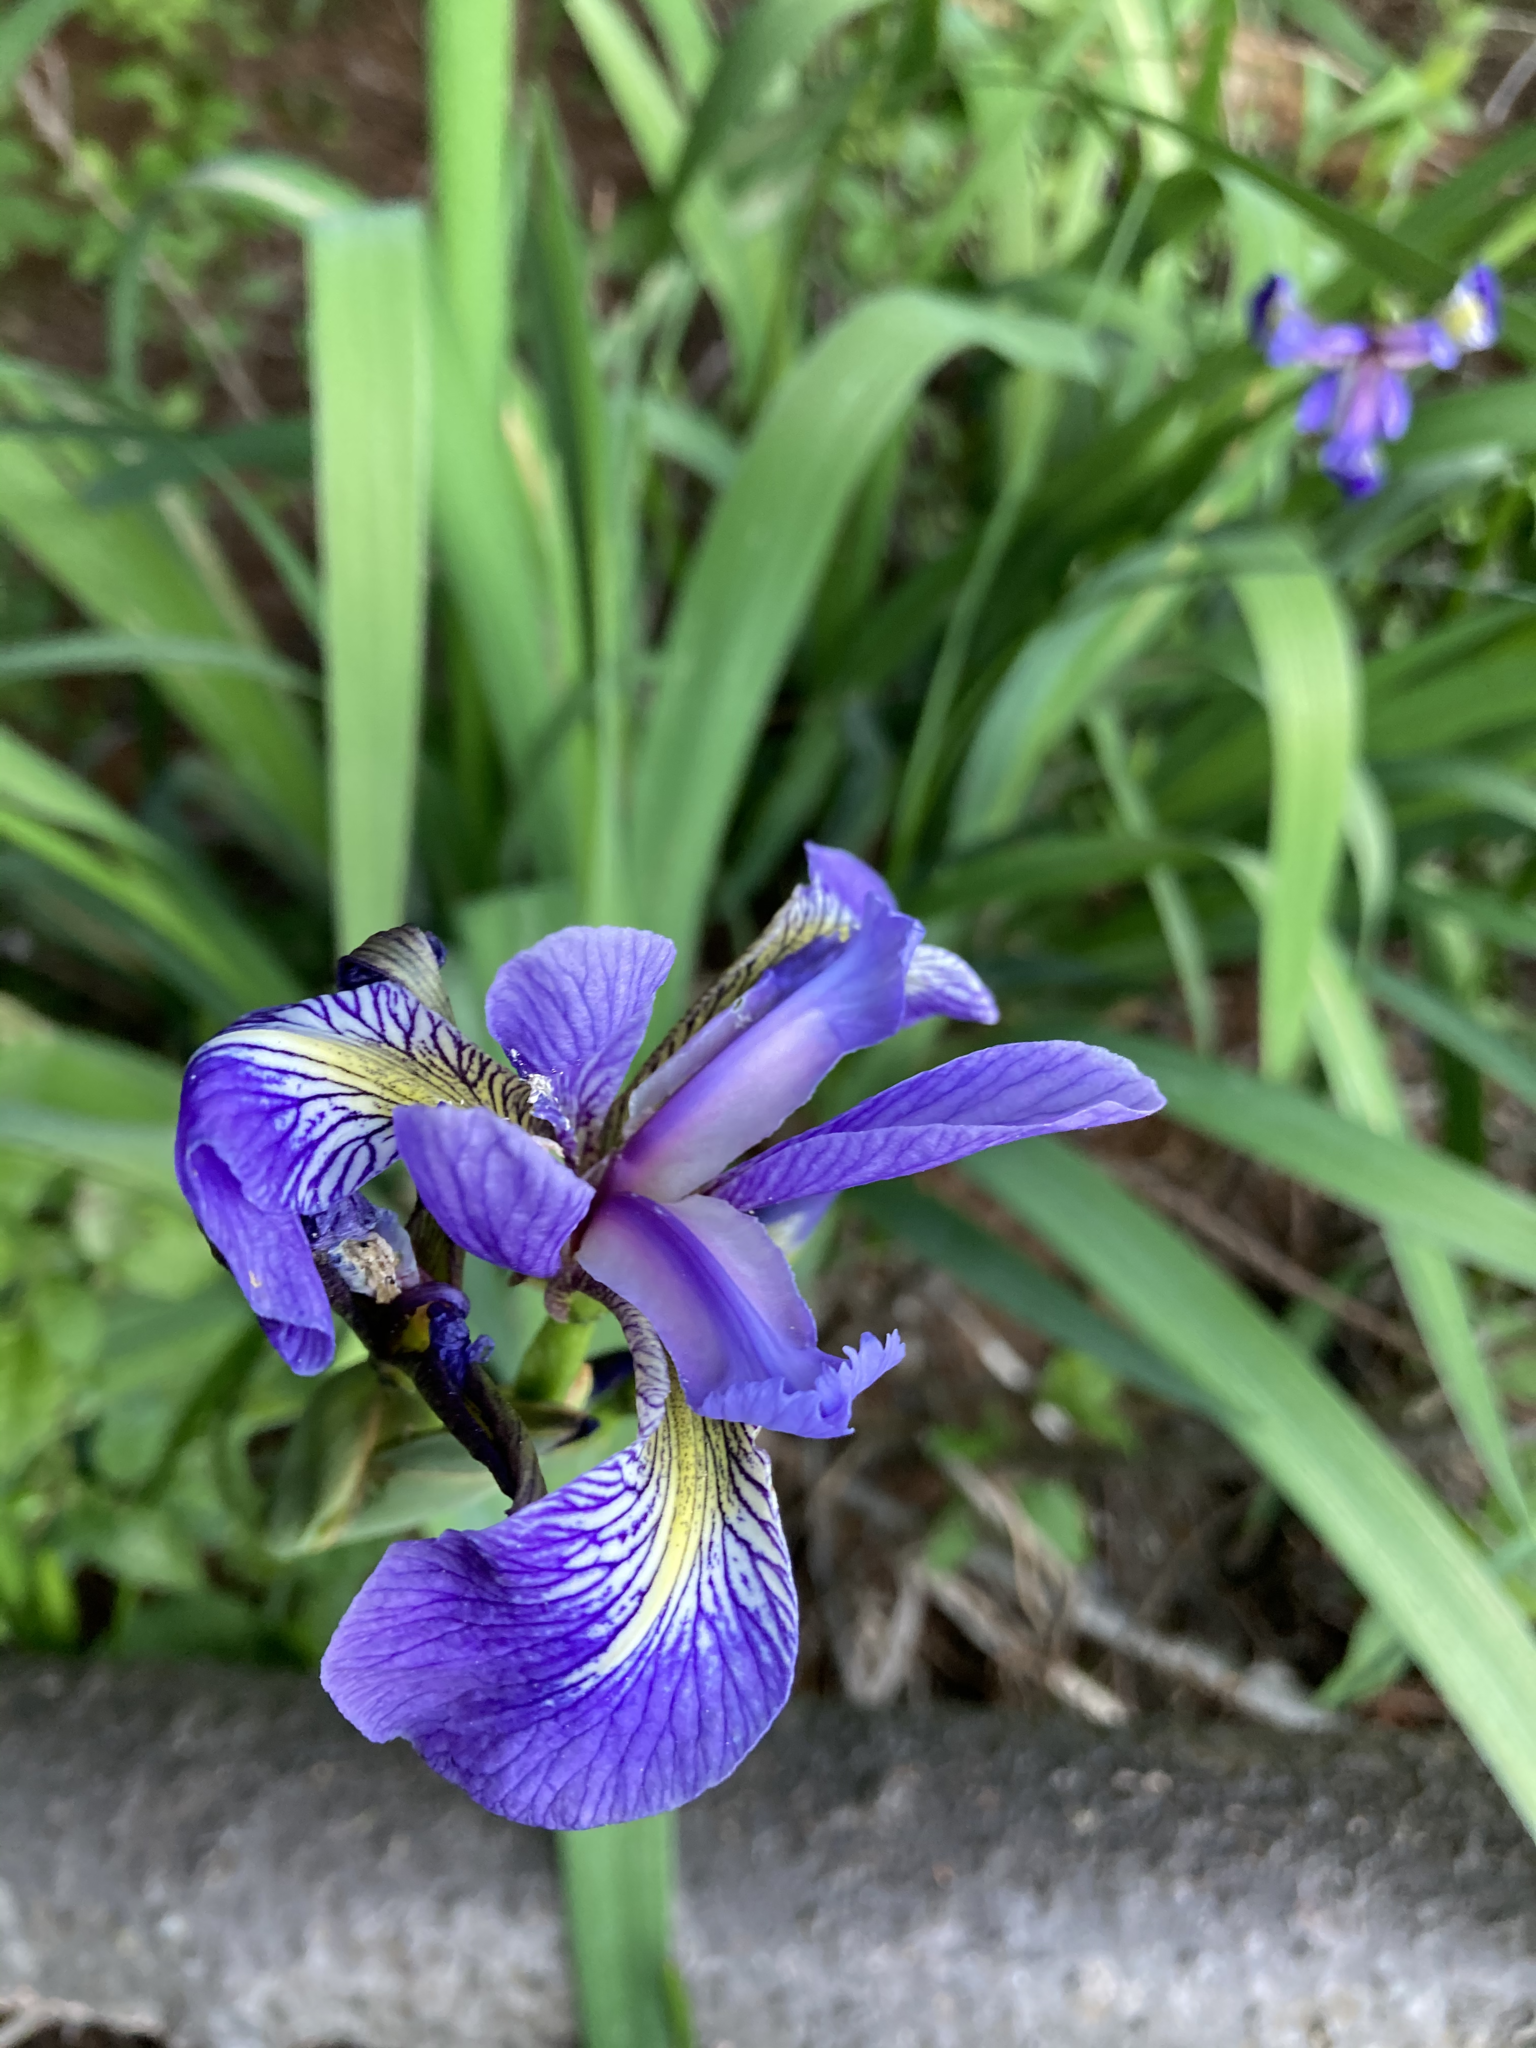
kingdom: Plantae
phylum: Tracheophyta
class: Liliopsida
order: Asparagales
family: Iridaceae
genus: Iris
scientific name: Iris versicolor
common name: Purple iris
